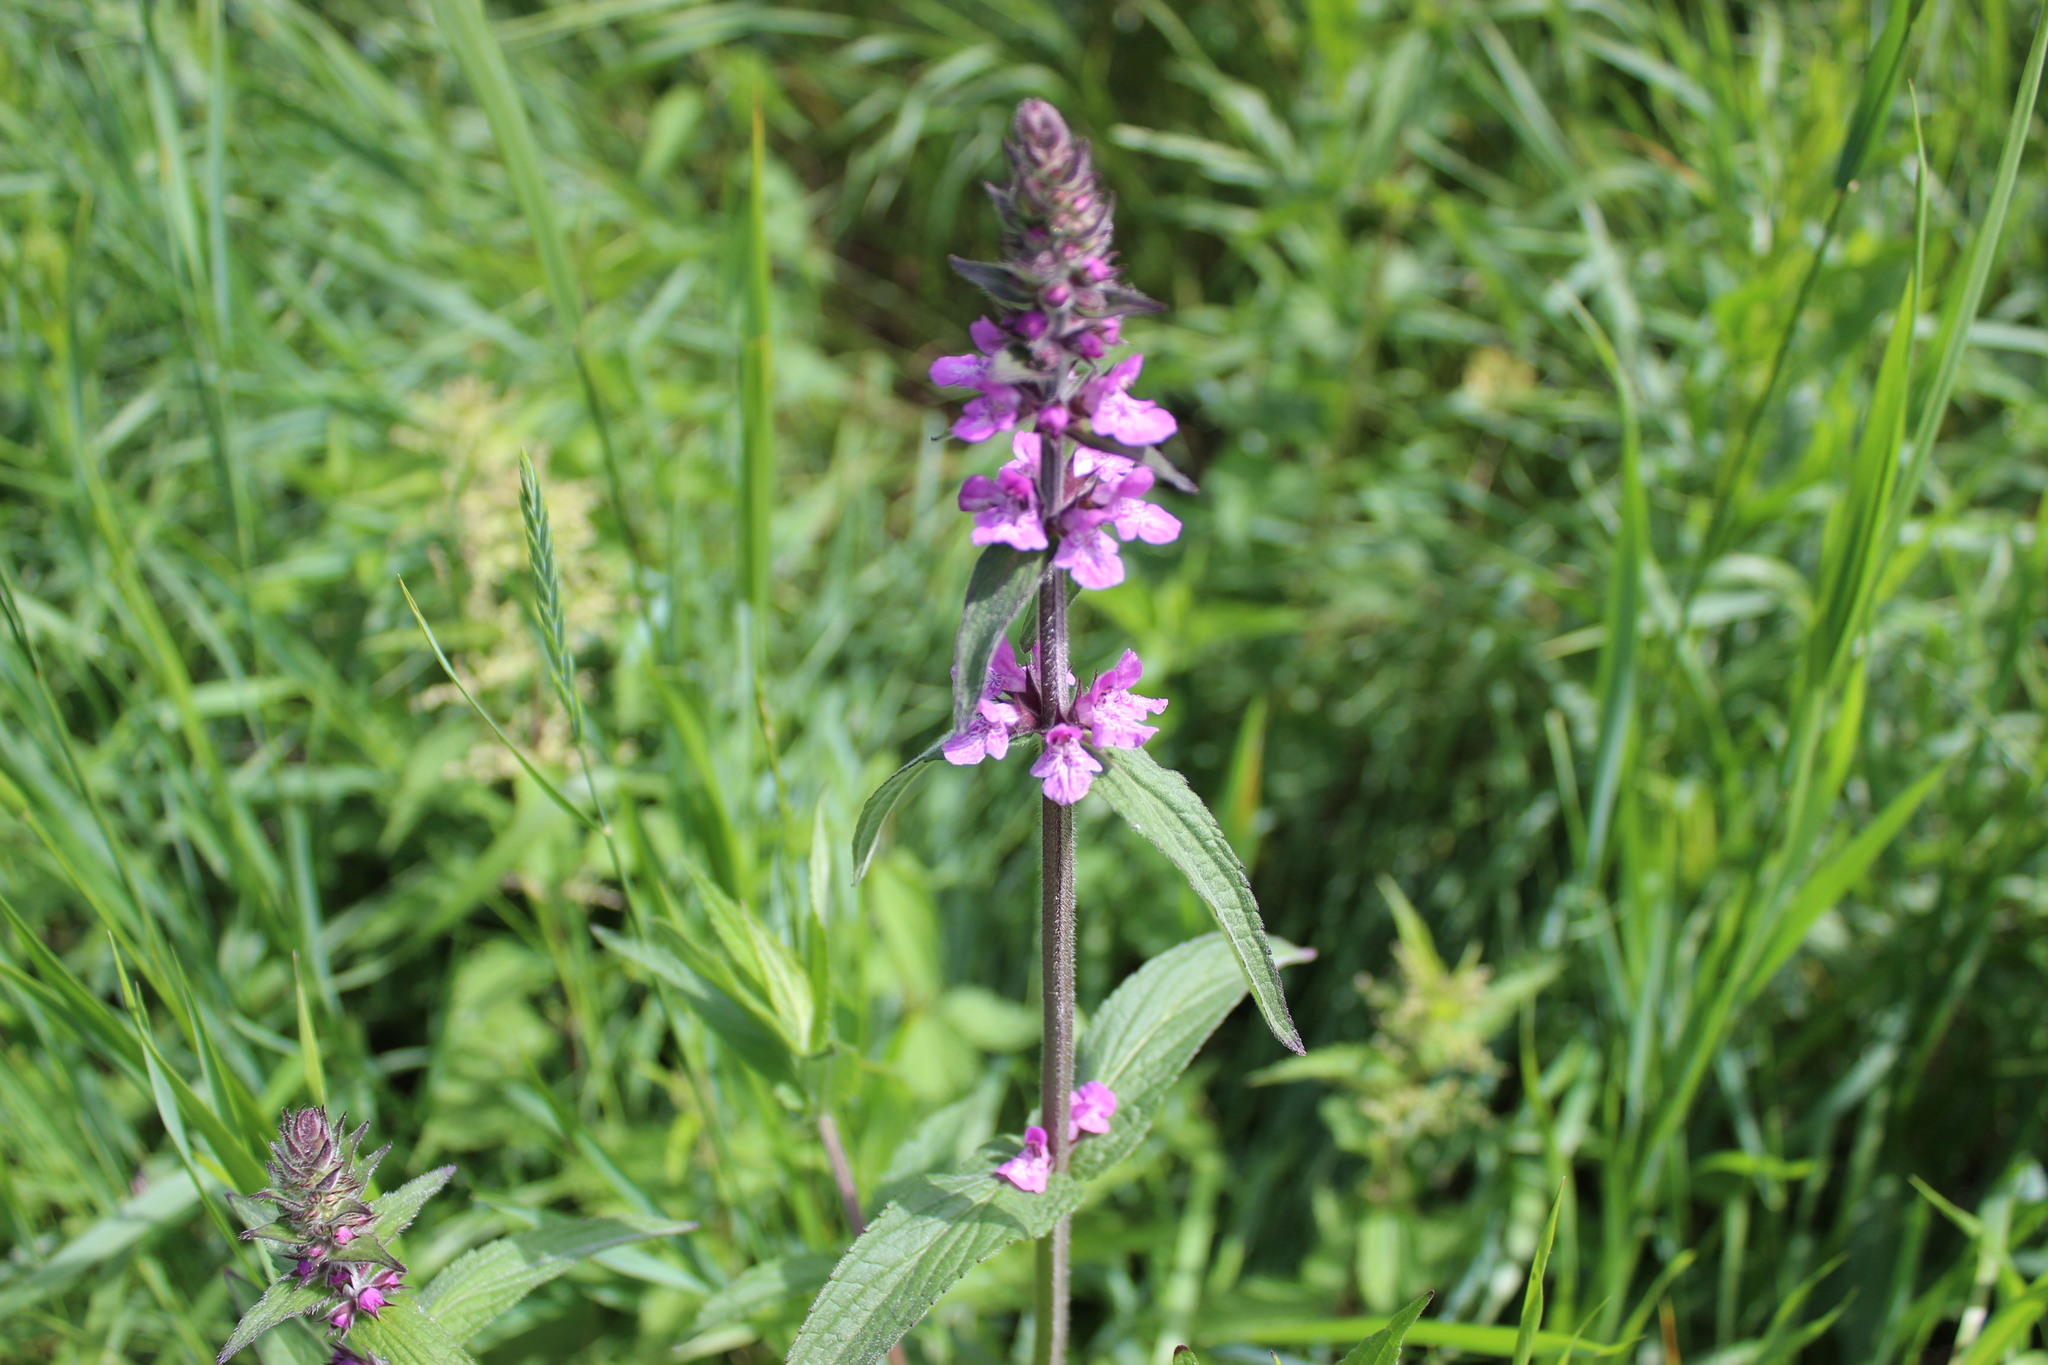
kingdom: Plantae
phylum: Tracheophyta
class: Magnoliopsida
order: Lamiales
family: Lamiaceae
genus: Stachys
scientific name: Stachys palustris
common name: Marsh woundwort
